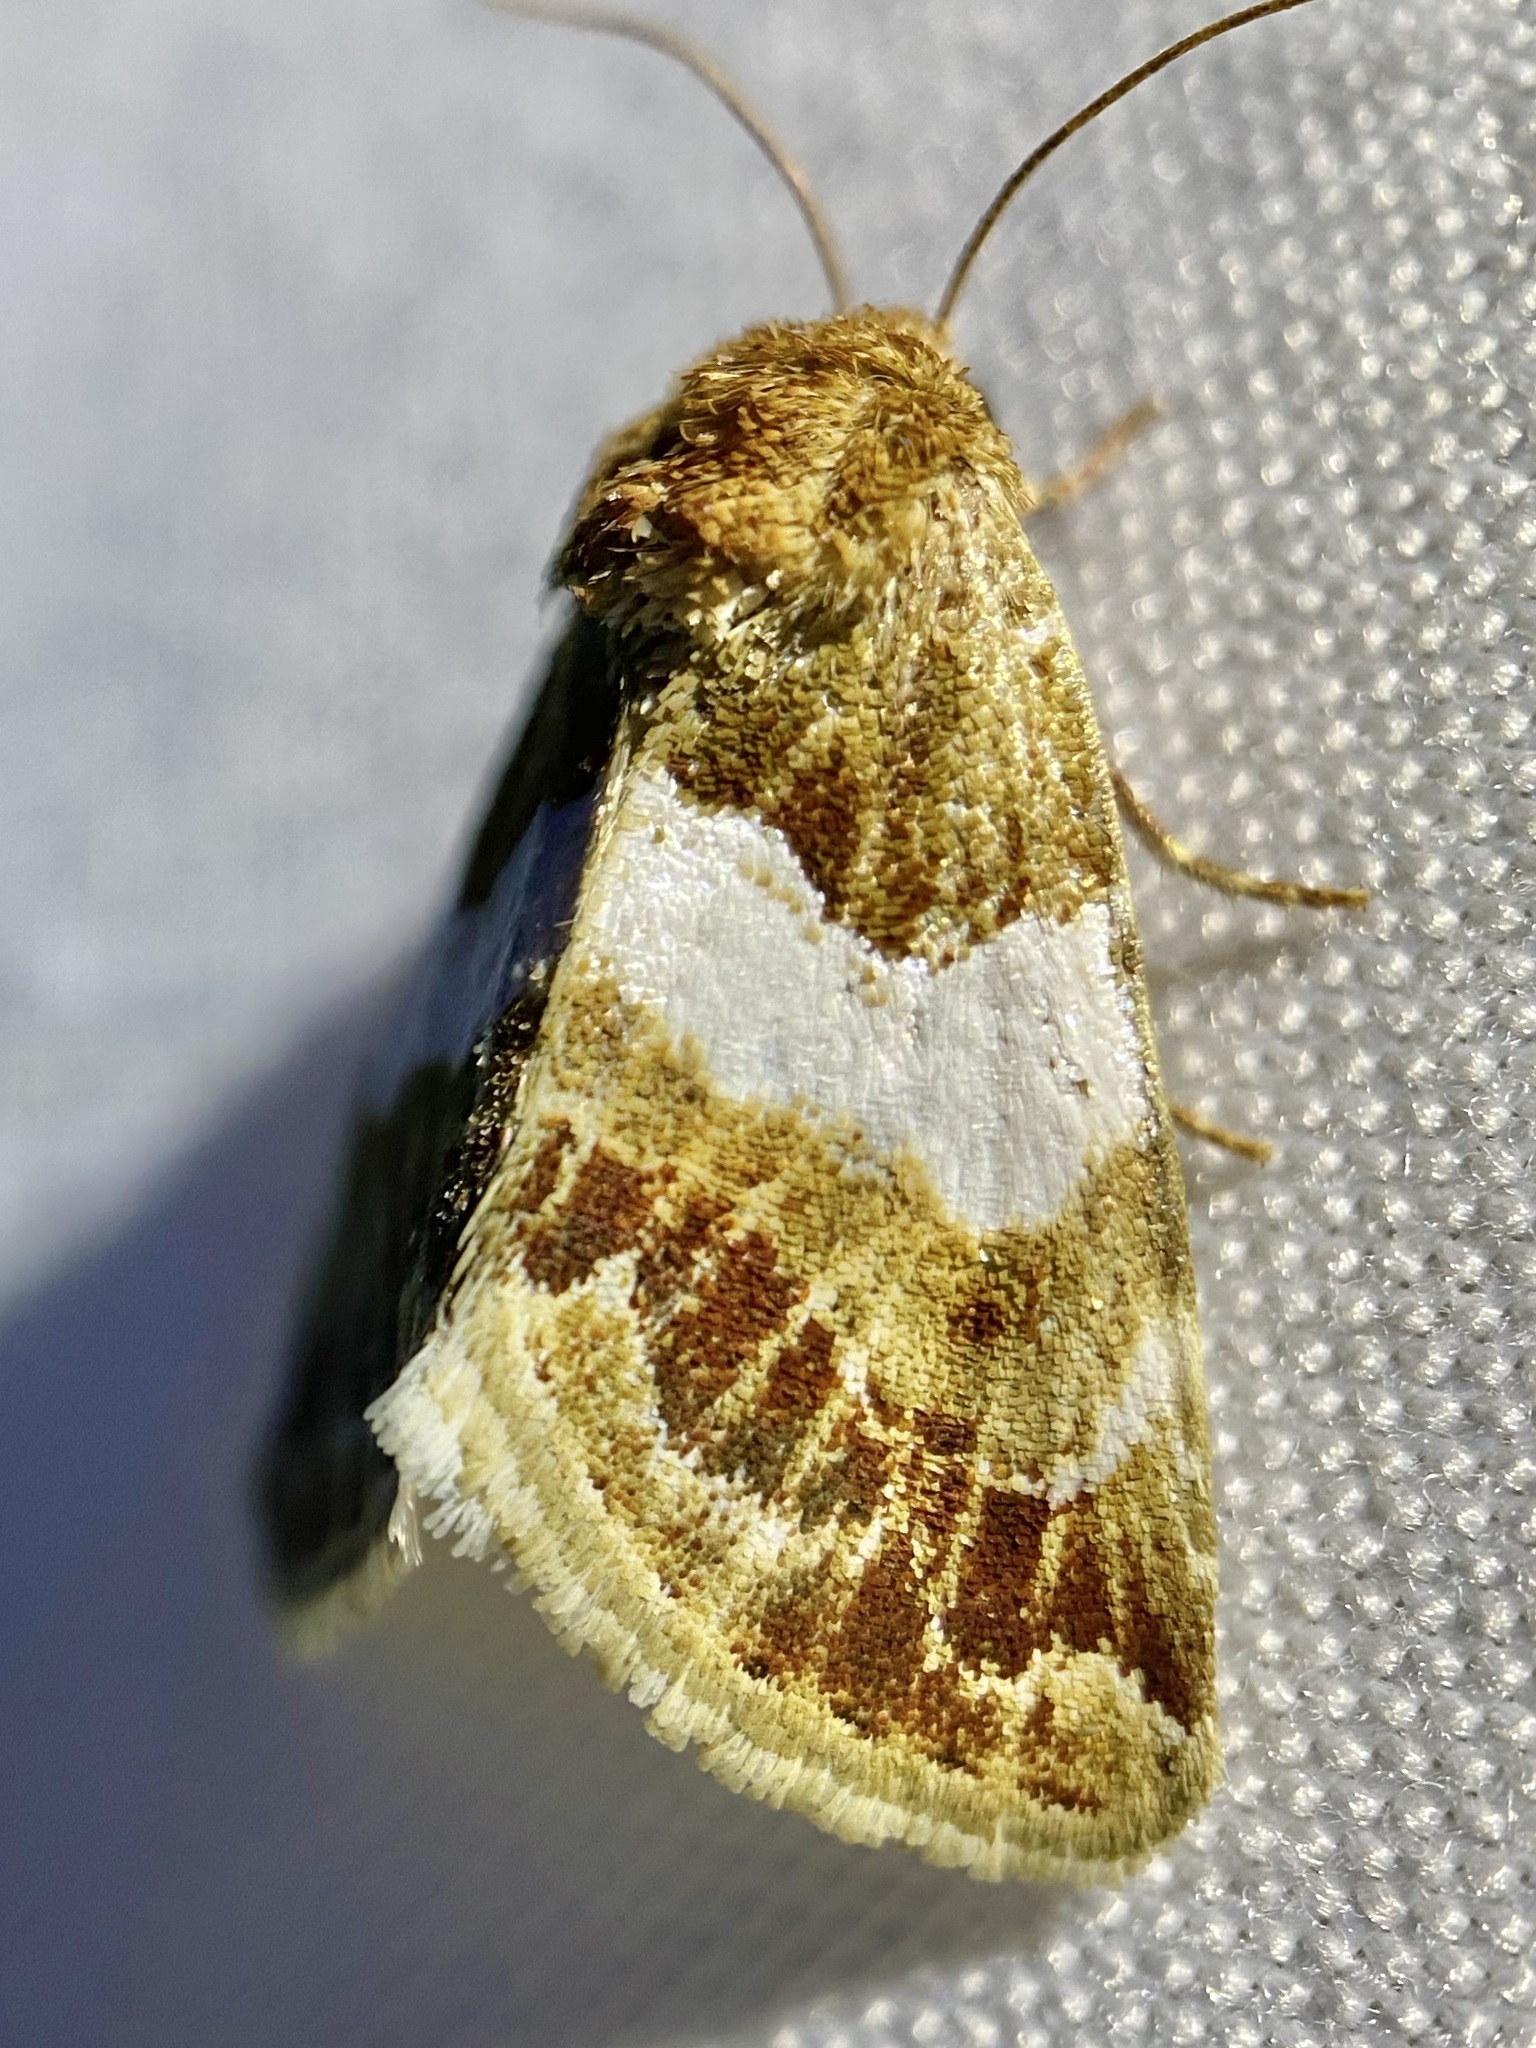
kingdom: Animalia
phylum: Arthropoda
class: Insecta
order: Lepidoptera
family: Noctuidae
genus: Schinia
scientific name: Schinia argentifascia
